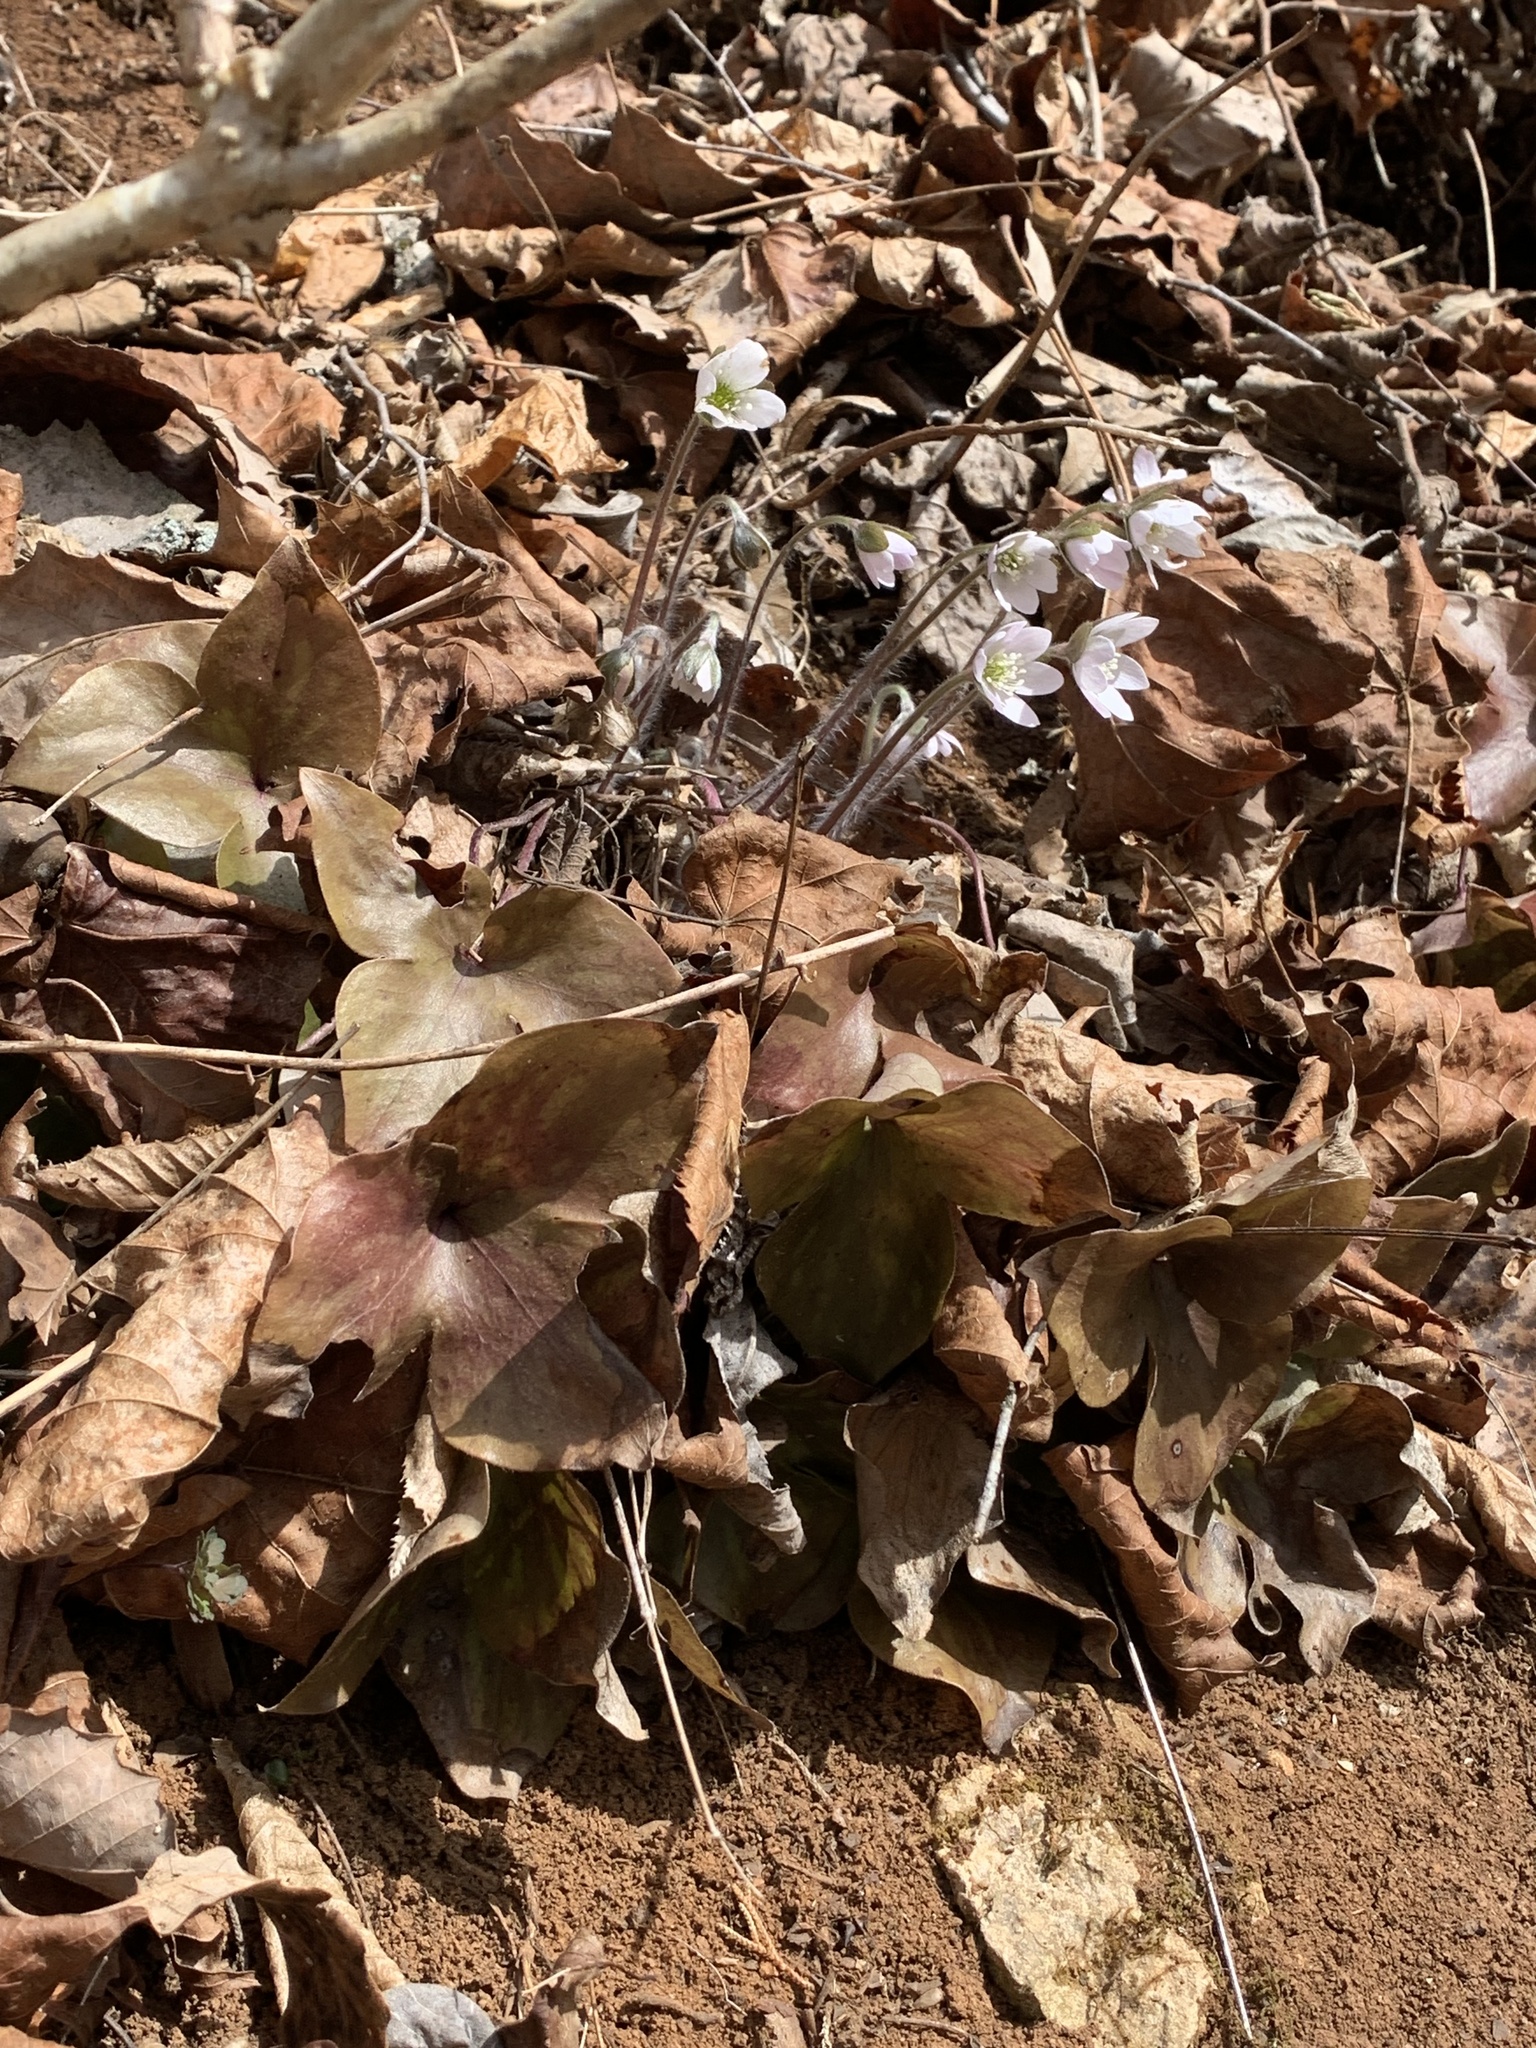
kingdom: Plantae
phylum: Tracheophyta
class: Magnoliopsida
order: Ranunculales
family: Ranunculaceae
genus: Hepatica
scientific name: Hepatica acutiloba
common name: Sharp-lobed hepatica
